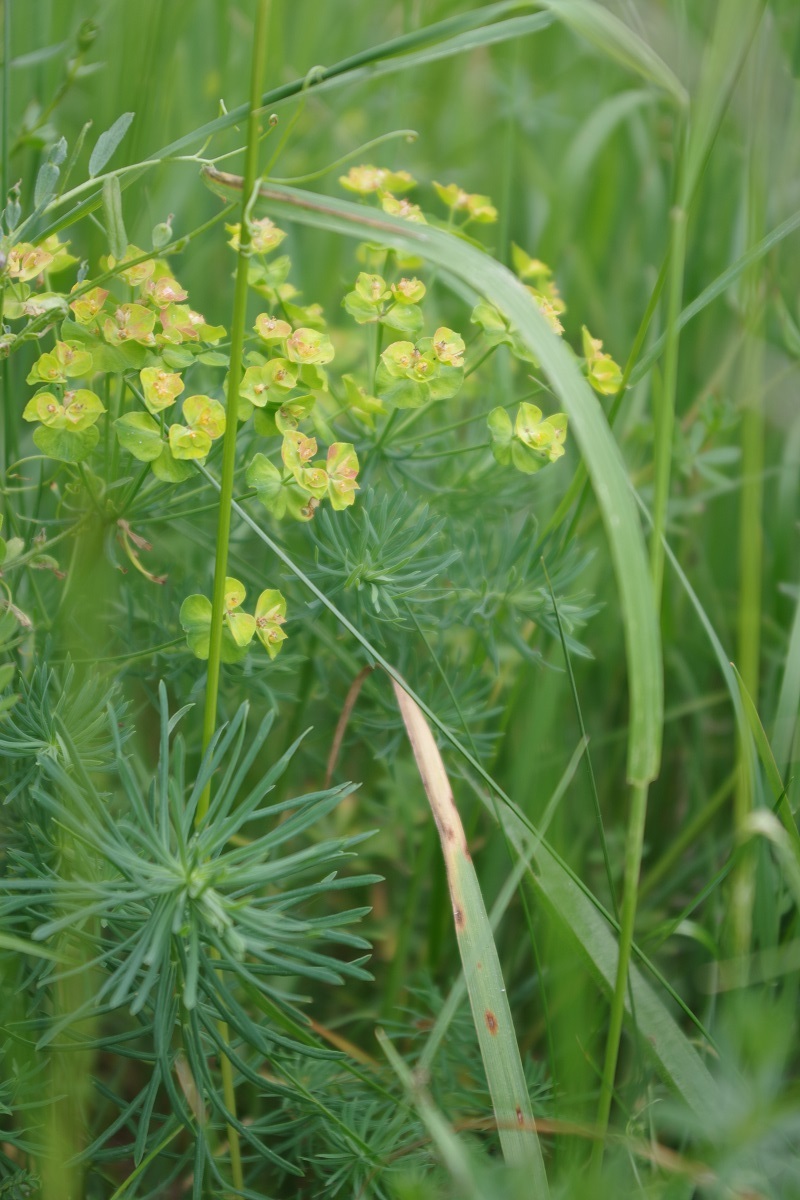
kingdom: Plantae
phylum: Tracheophyta
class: Magnoliopsida
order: Malpighiales
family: Euphorbiaceae
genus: Euphorbia
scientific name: Euphorbia cyparissias
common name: Cypress spurge
